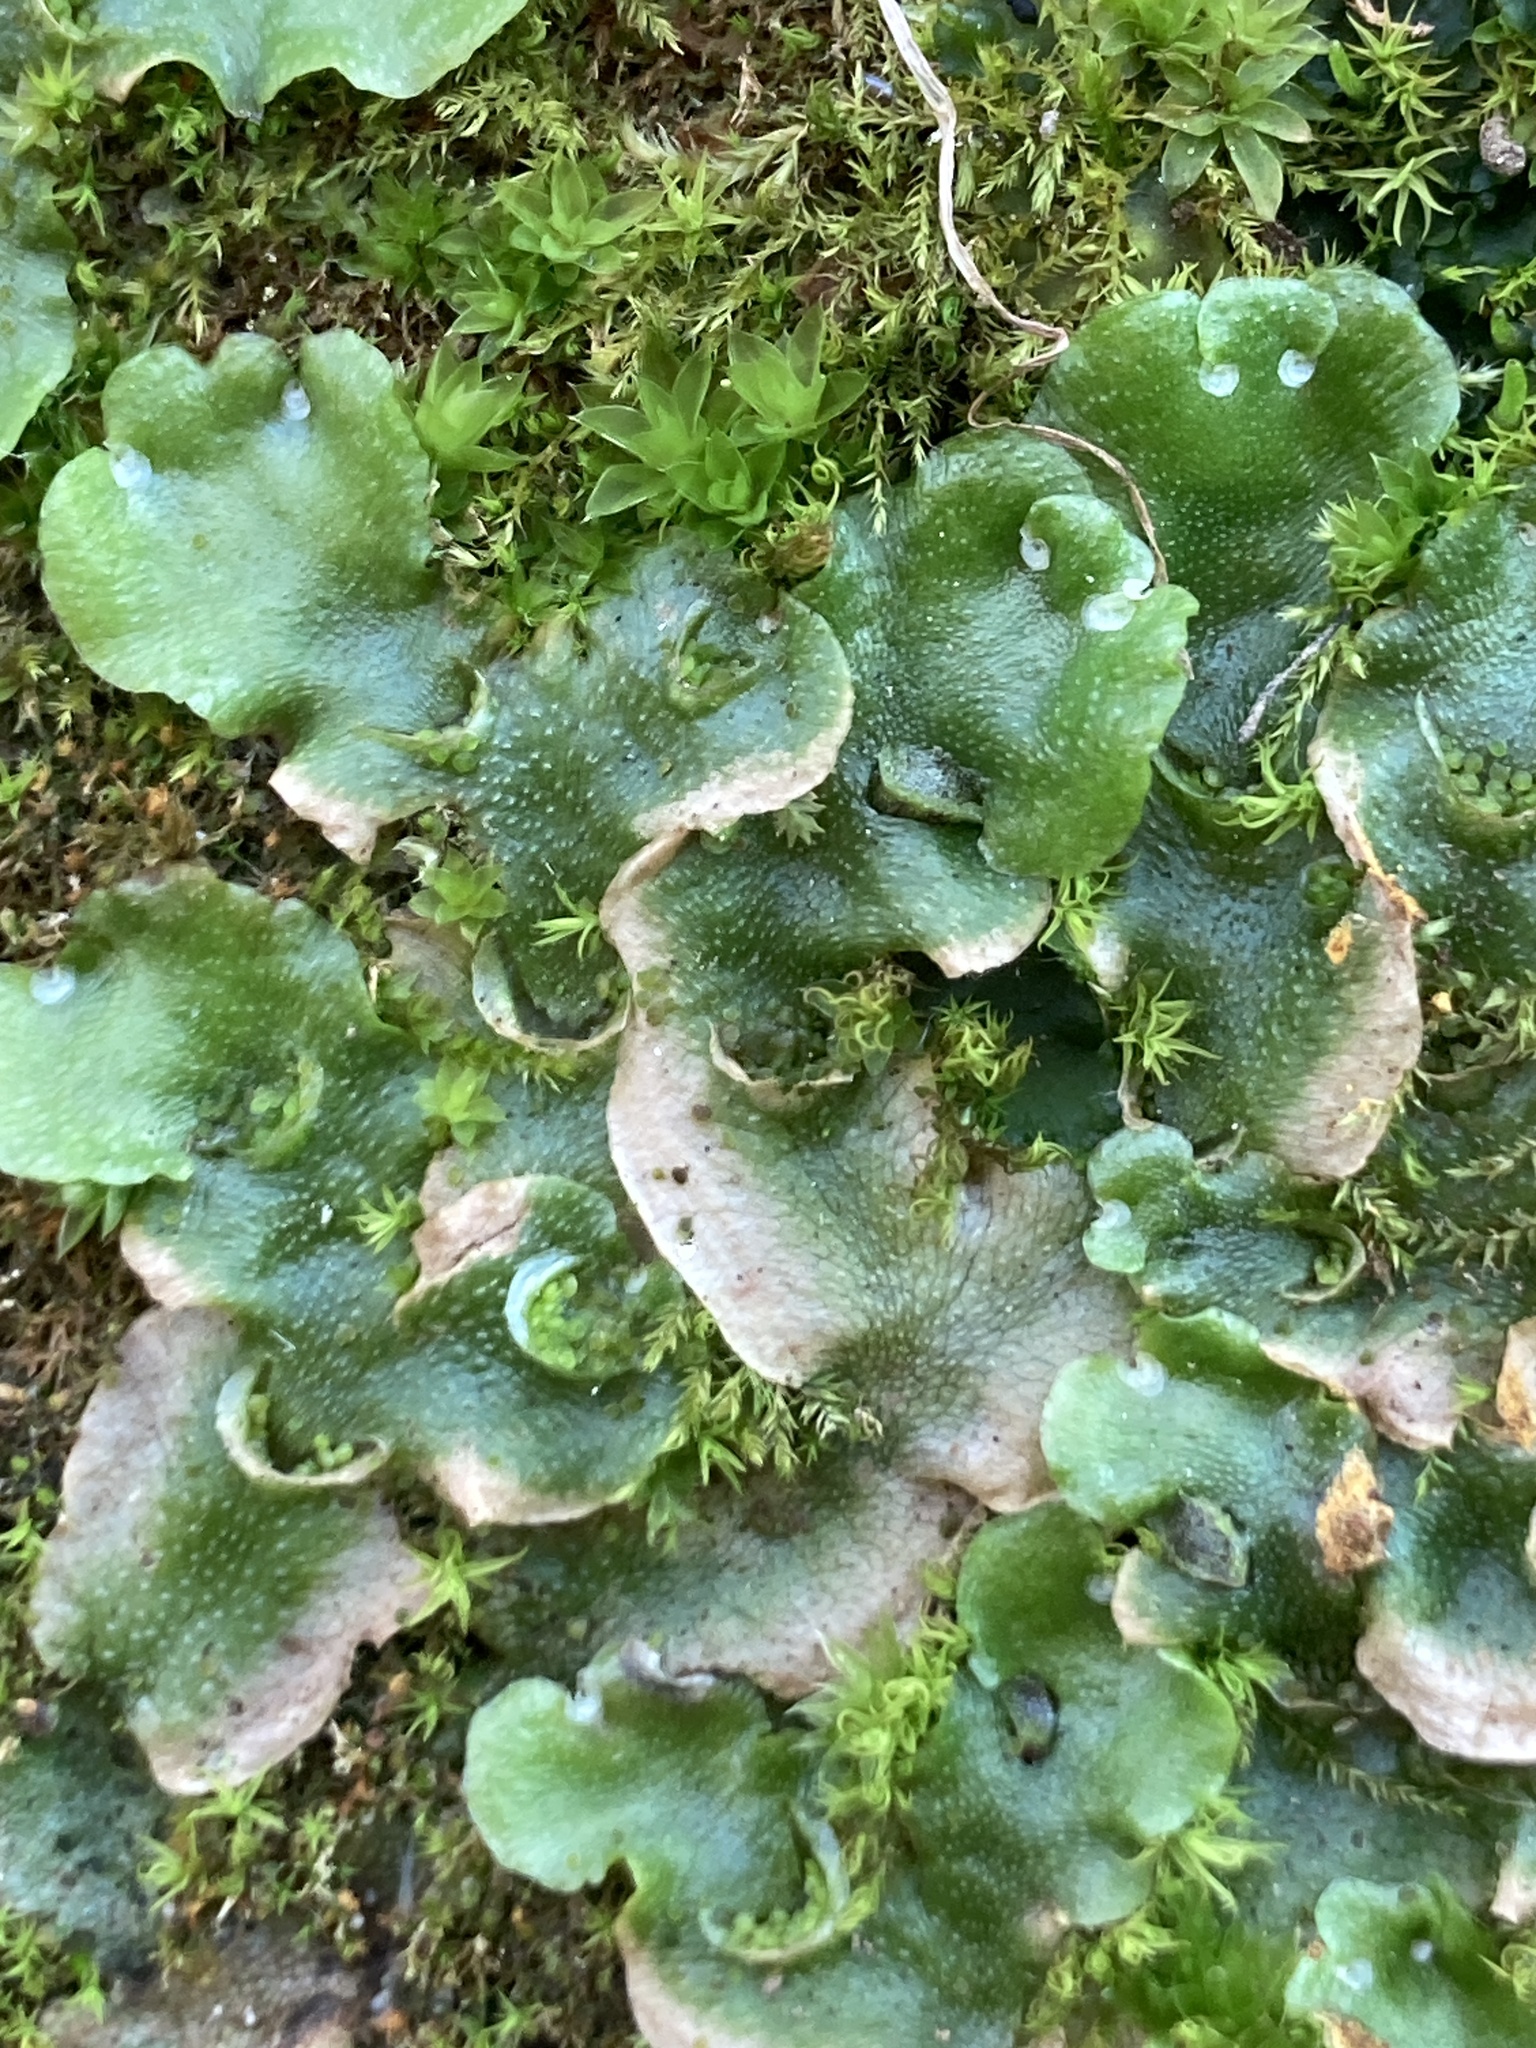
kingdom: Plantae
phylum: Marchantiophyta
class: Marchantiopsida
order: Lunulariales
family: Lunulariaceae
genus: Lunularia
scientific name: Lunularia cruciata
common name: Crescent-cup liverwort
